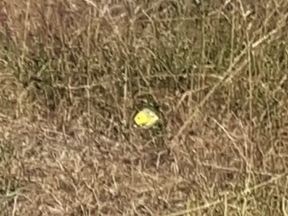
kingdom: Animalia
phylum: Arthropoda
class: Insecta
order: Lepidoptera
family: Pieridae
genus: Colias
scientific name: Colias croceus
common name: Clouded yellow
